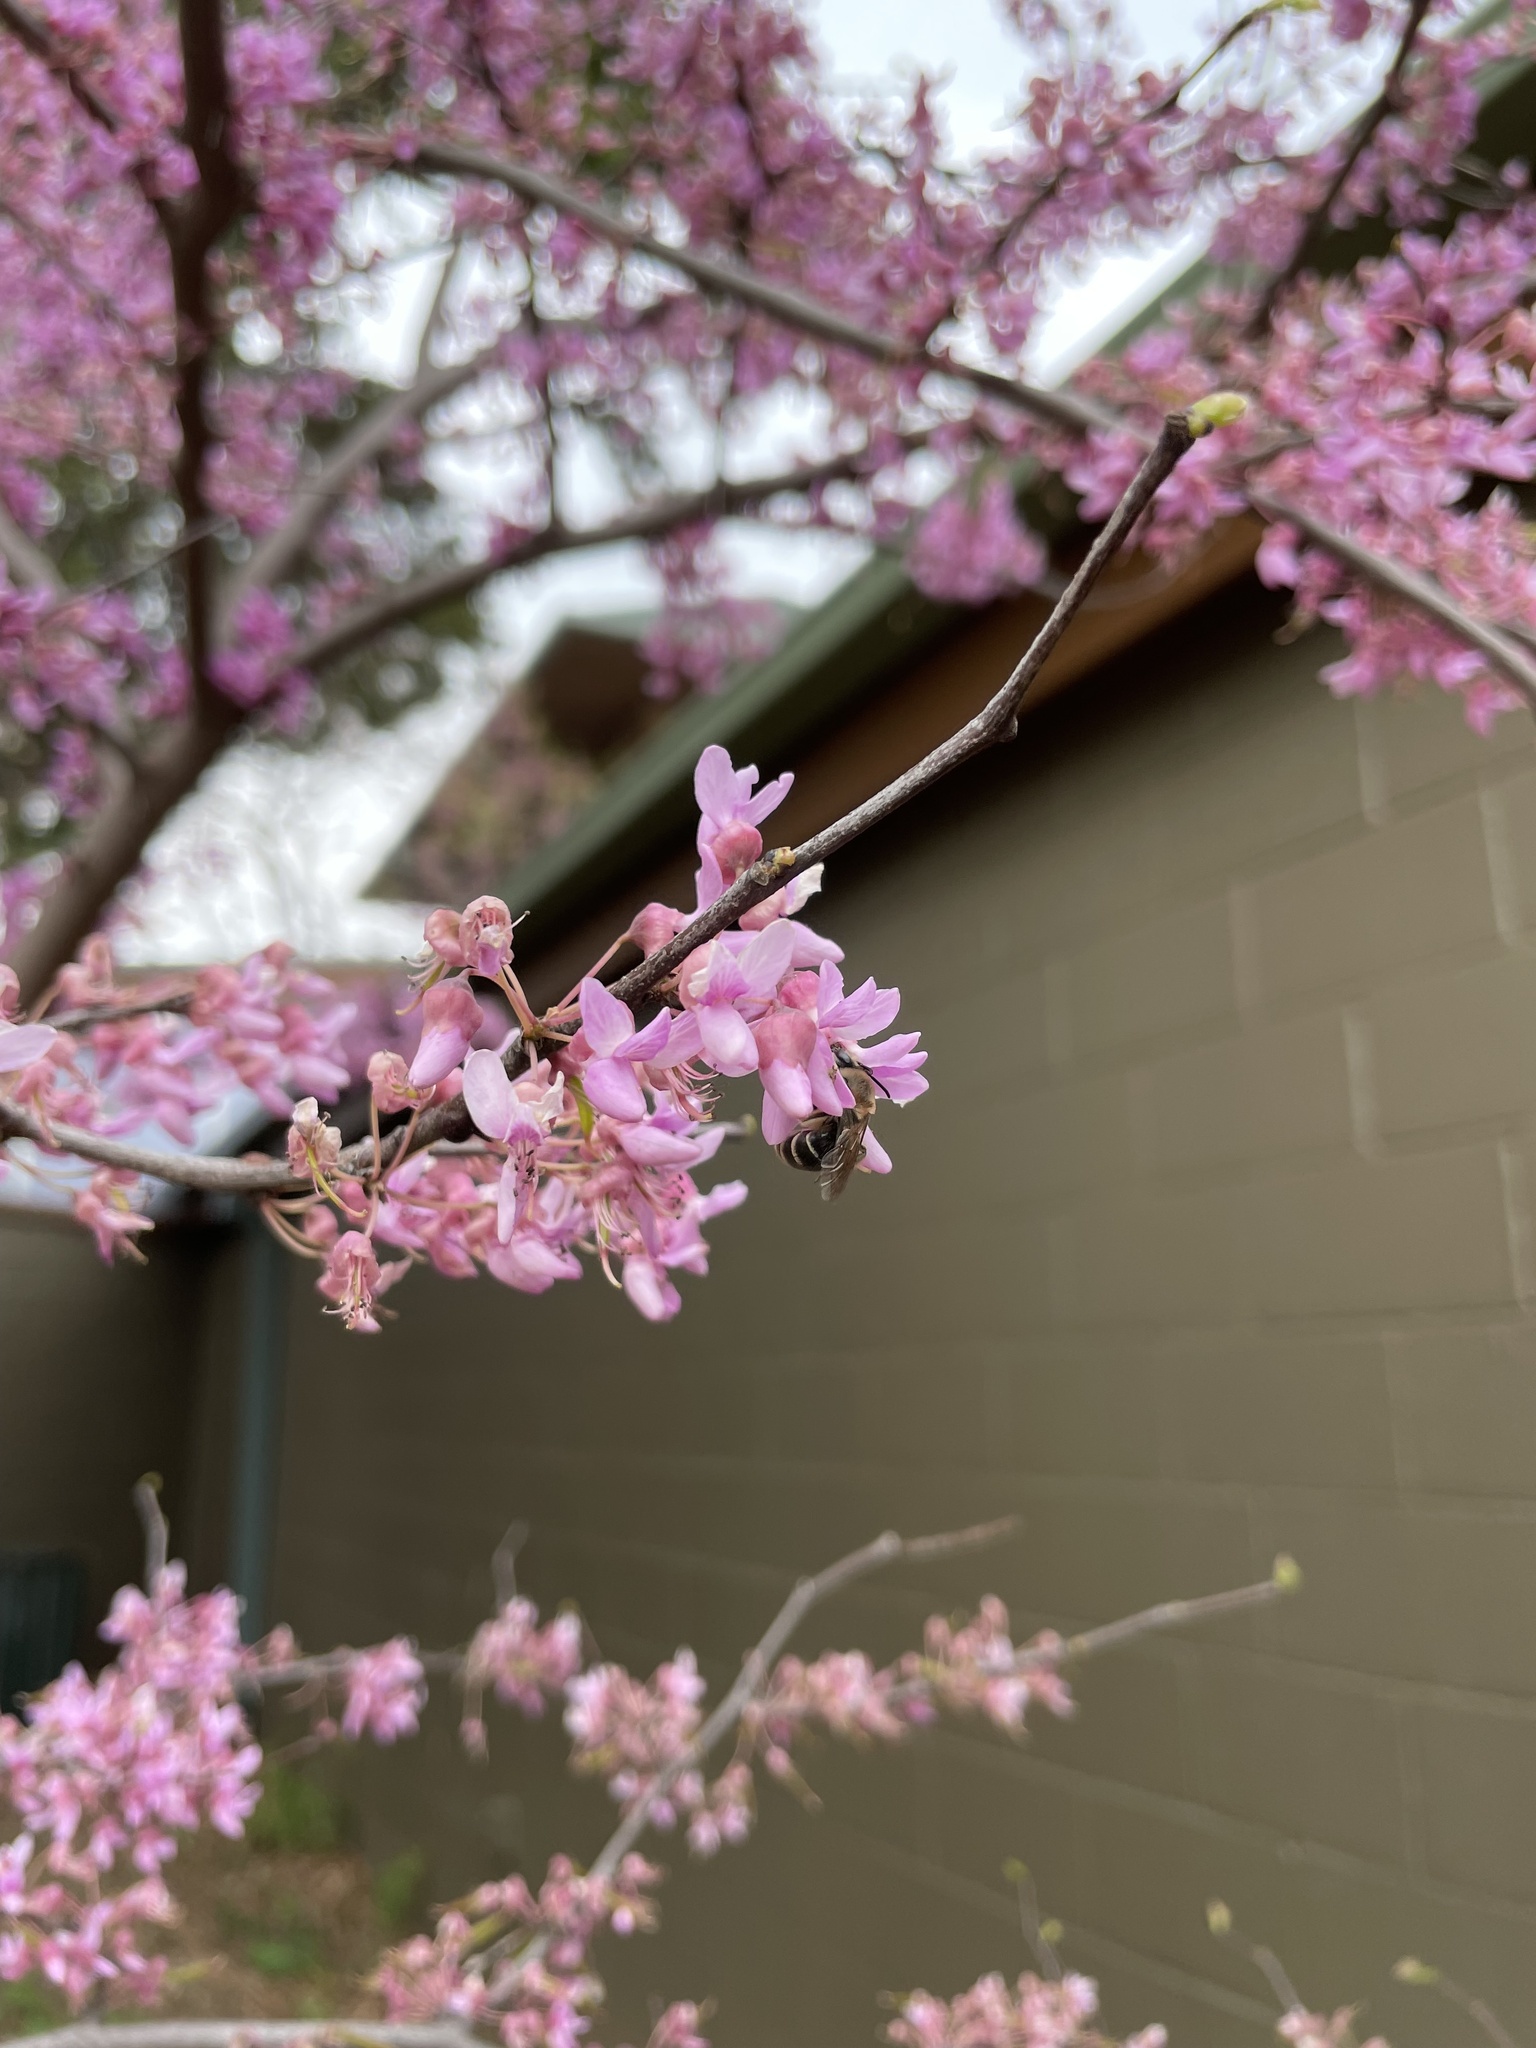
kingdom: Animalia
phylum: Arthropoda
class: Insecta
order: Hymenoptera
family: Colletidae
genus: Colletes
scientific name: Colletes inaequalis
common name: Unequal cellophane bee
